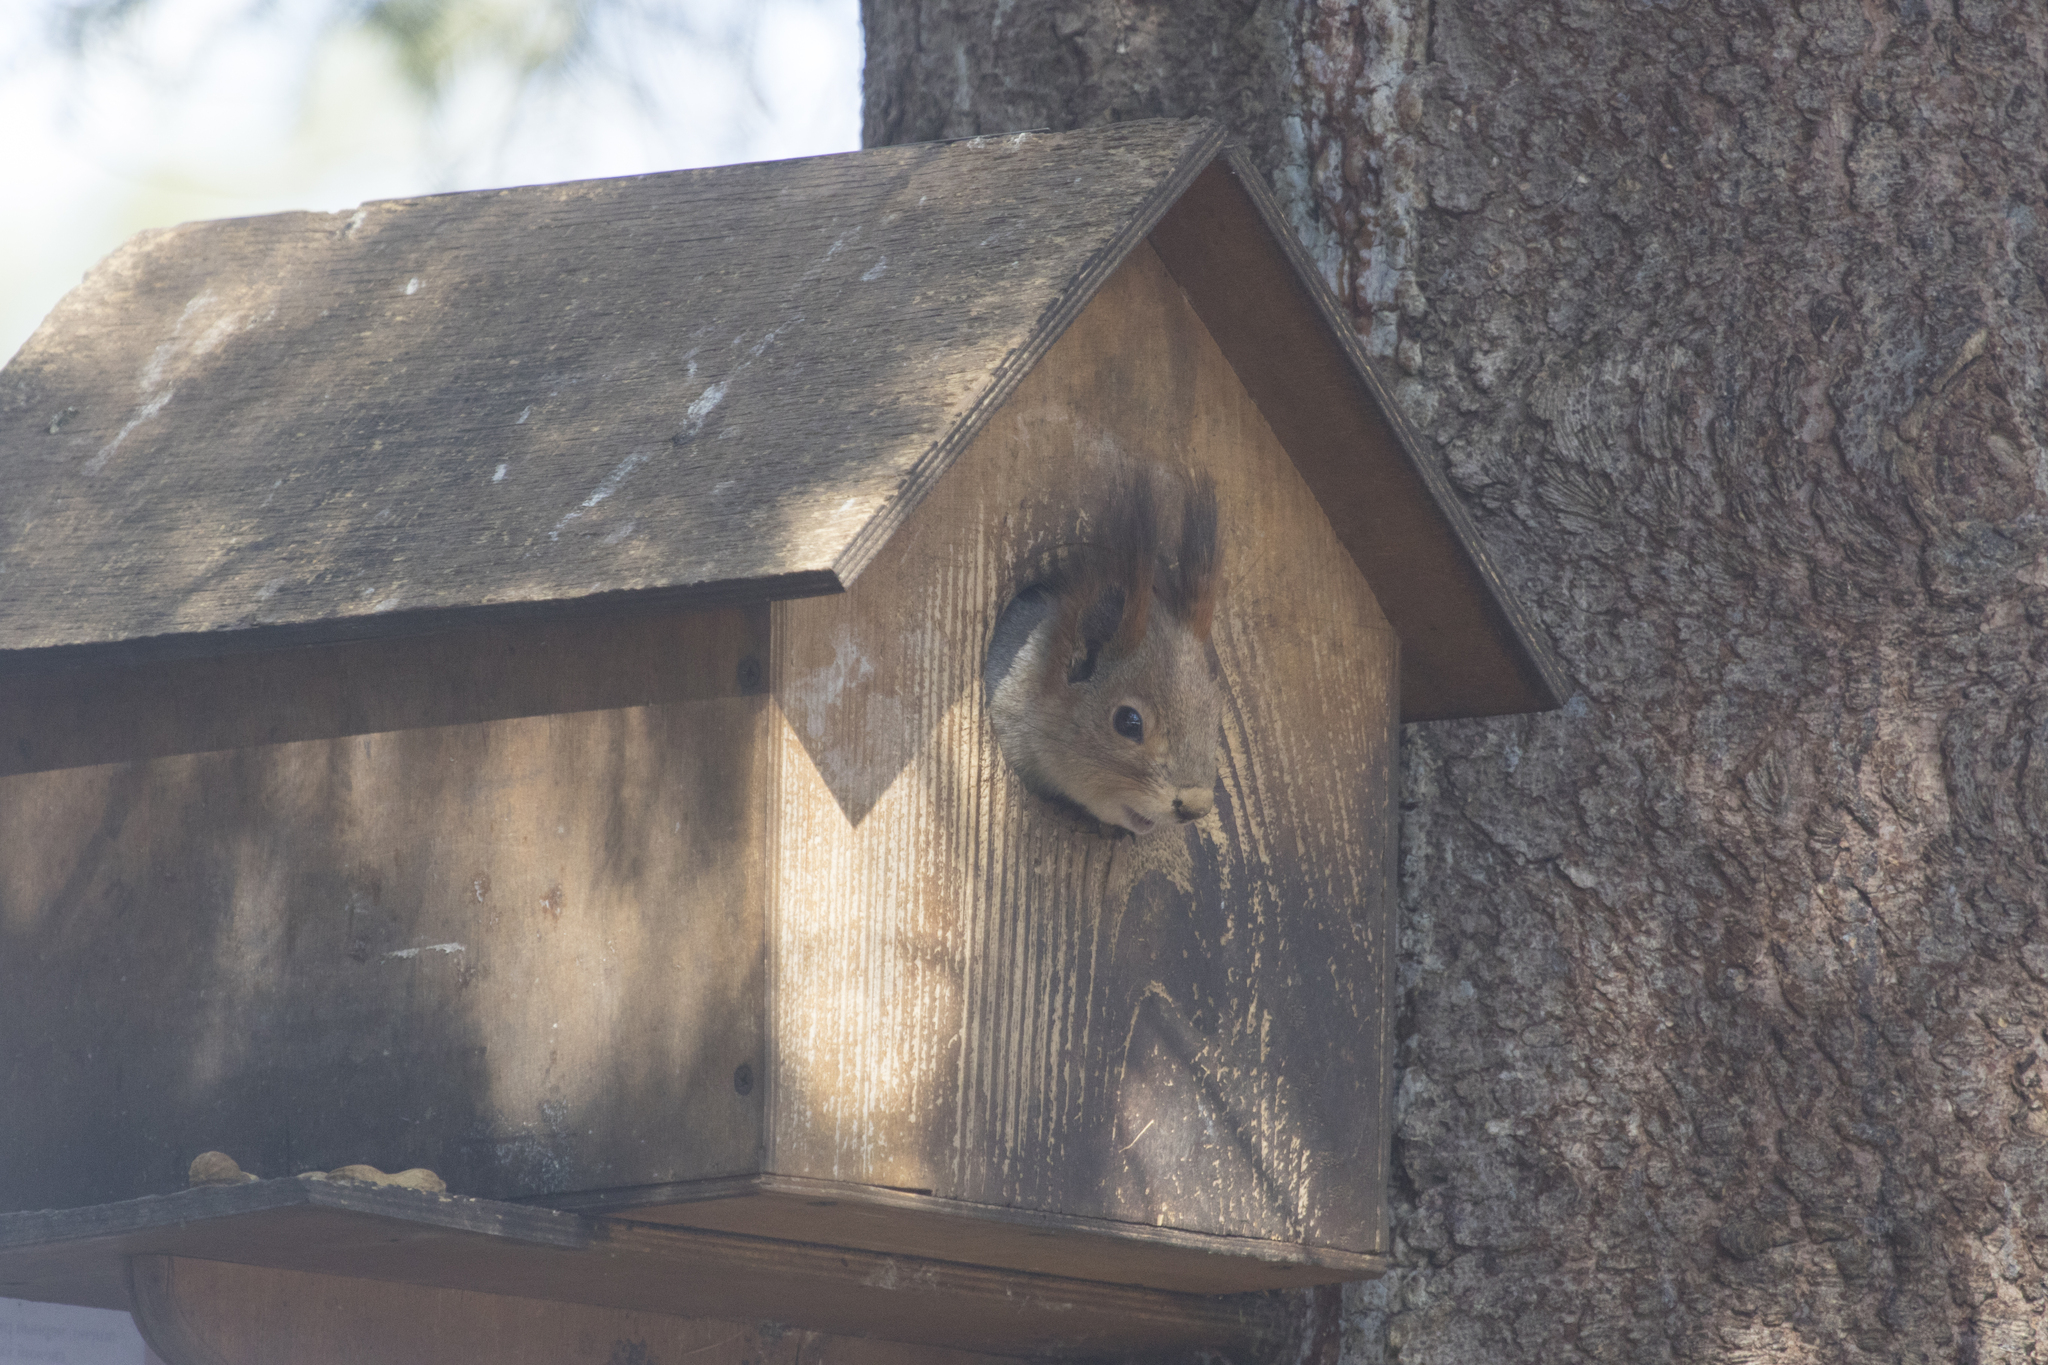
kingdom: Animalia
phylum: Chordata
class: Mammalia
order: Rodentia
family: Sciuridae
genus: Sciurus
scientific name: Sciurus vulgaris
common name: Eurasian red squirrel
